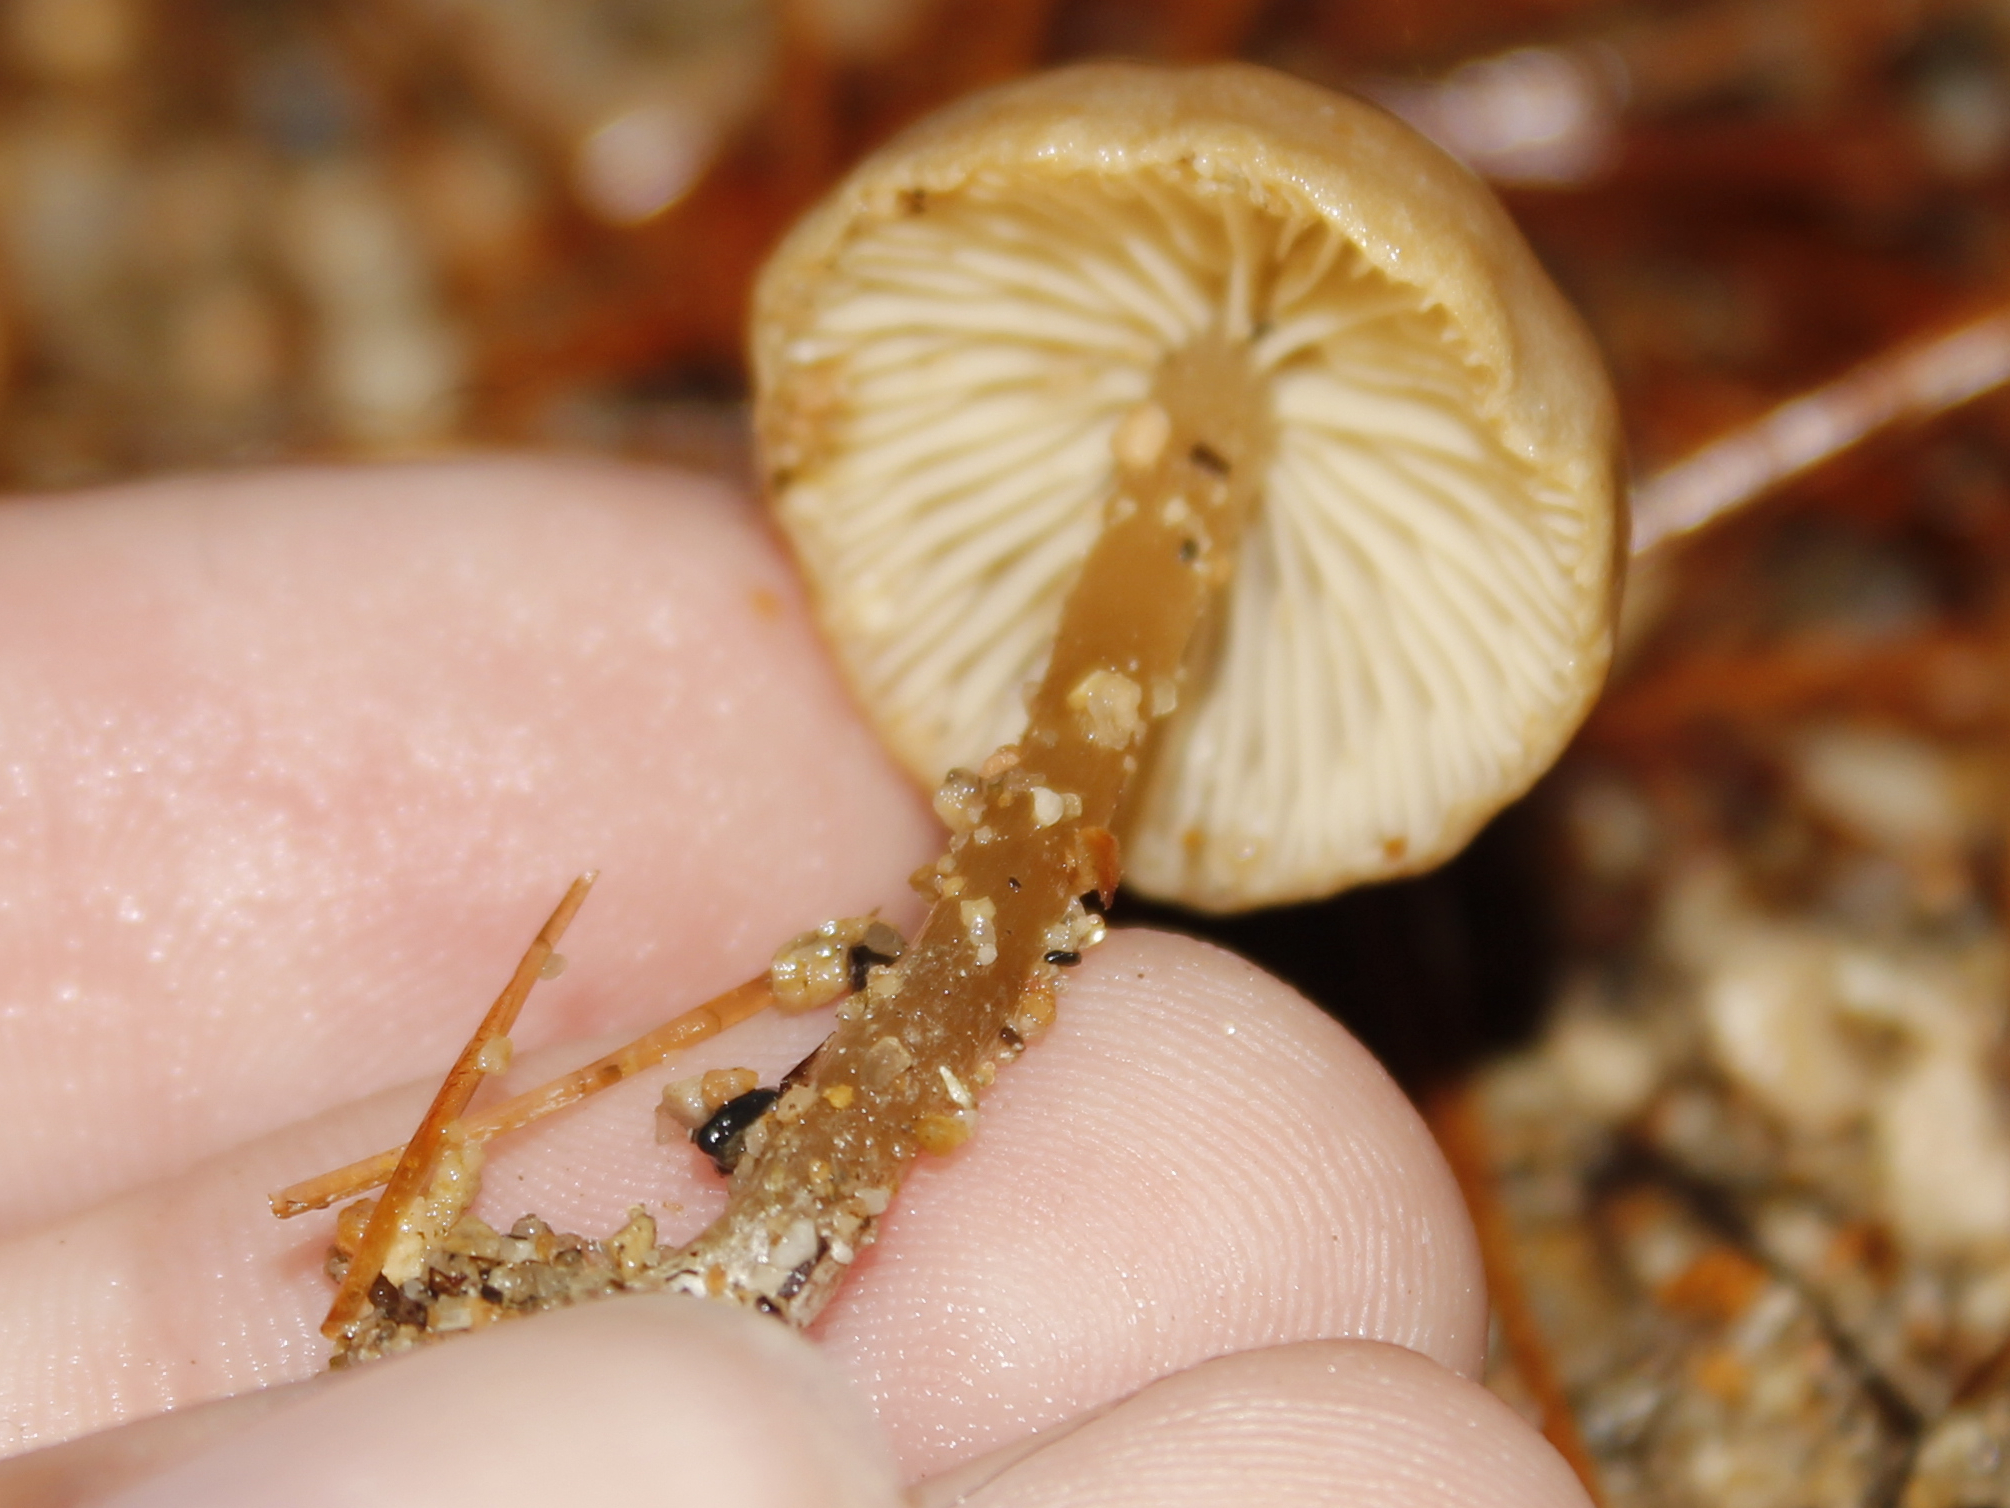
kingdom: Fungi
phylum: Basidiomycota
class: Agaricomycetes
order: Agaricales
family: Callistosporiaceae
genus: Pseudolaccaria
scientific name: Pseudolaccaria pachyphylla
